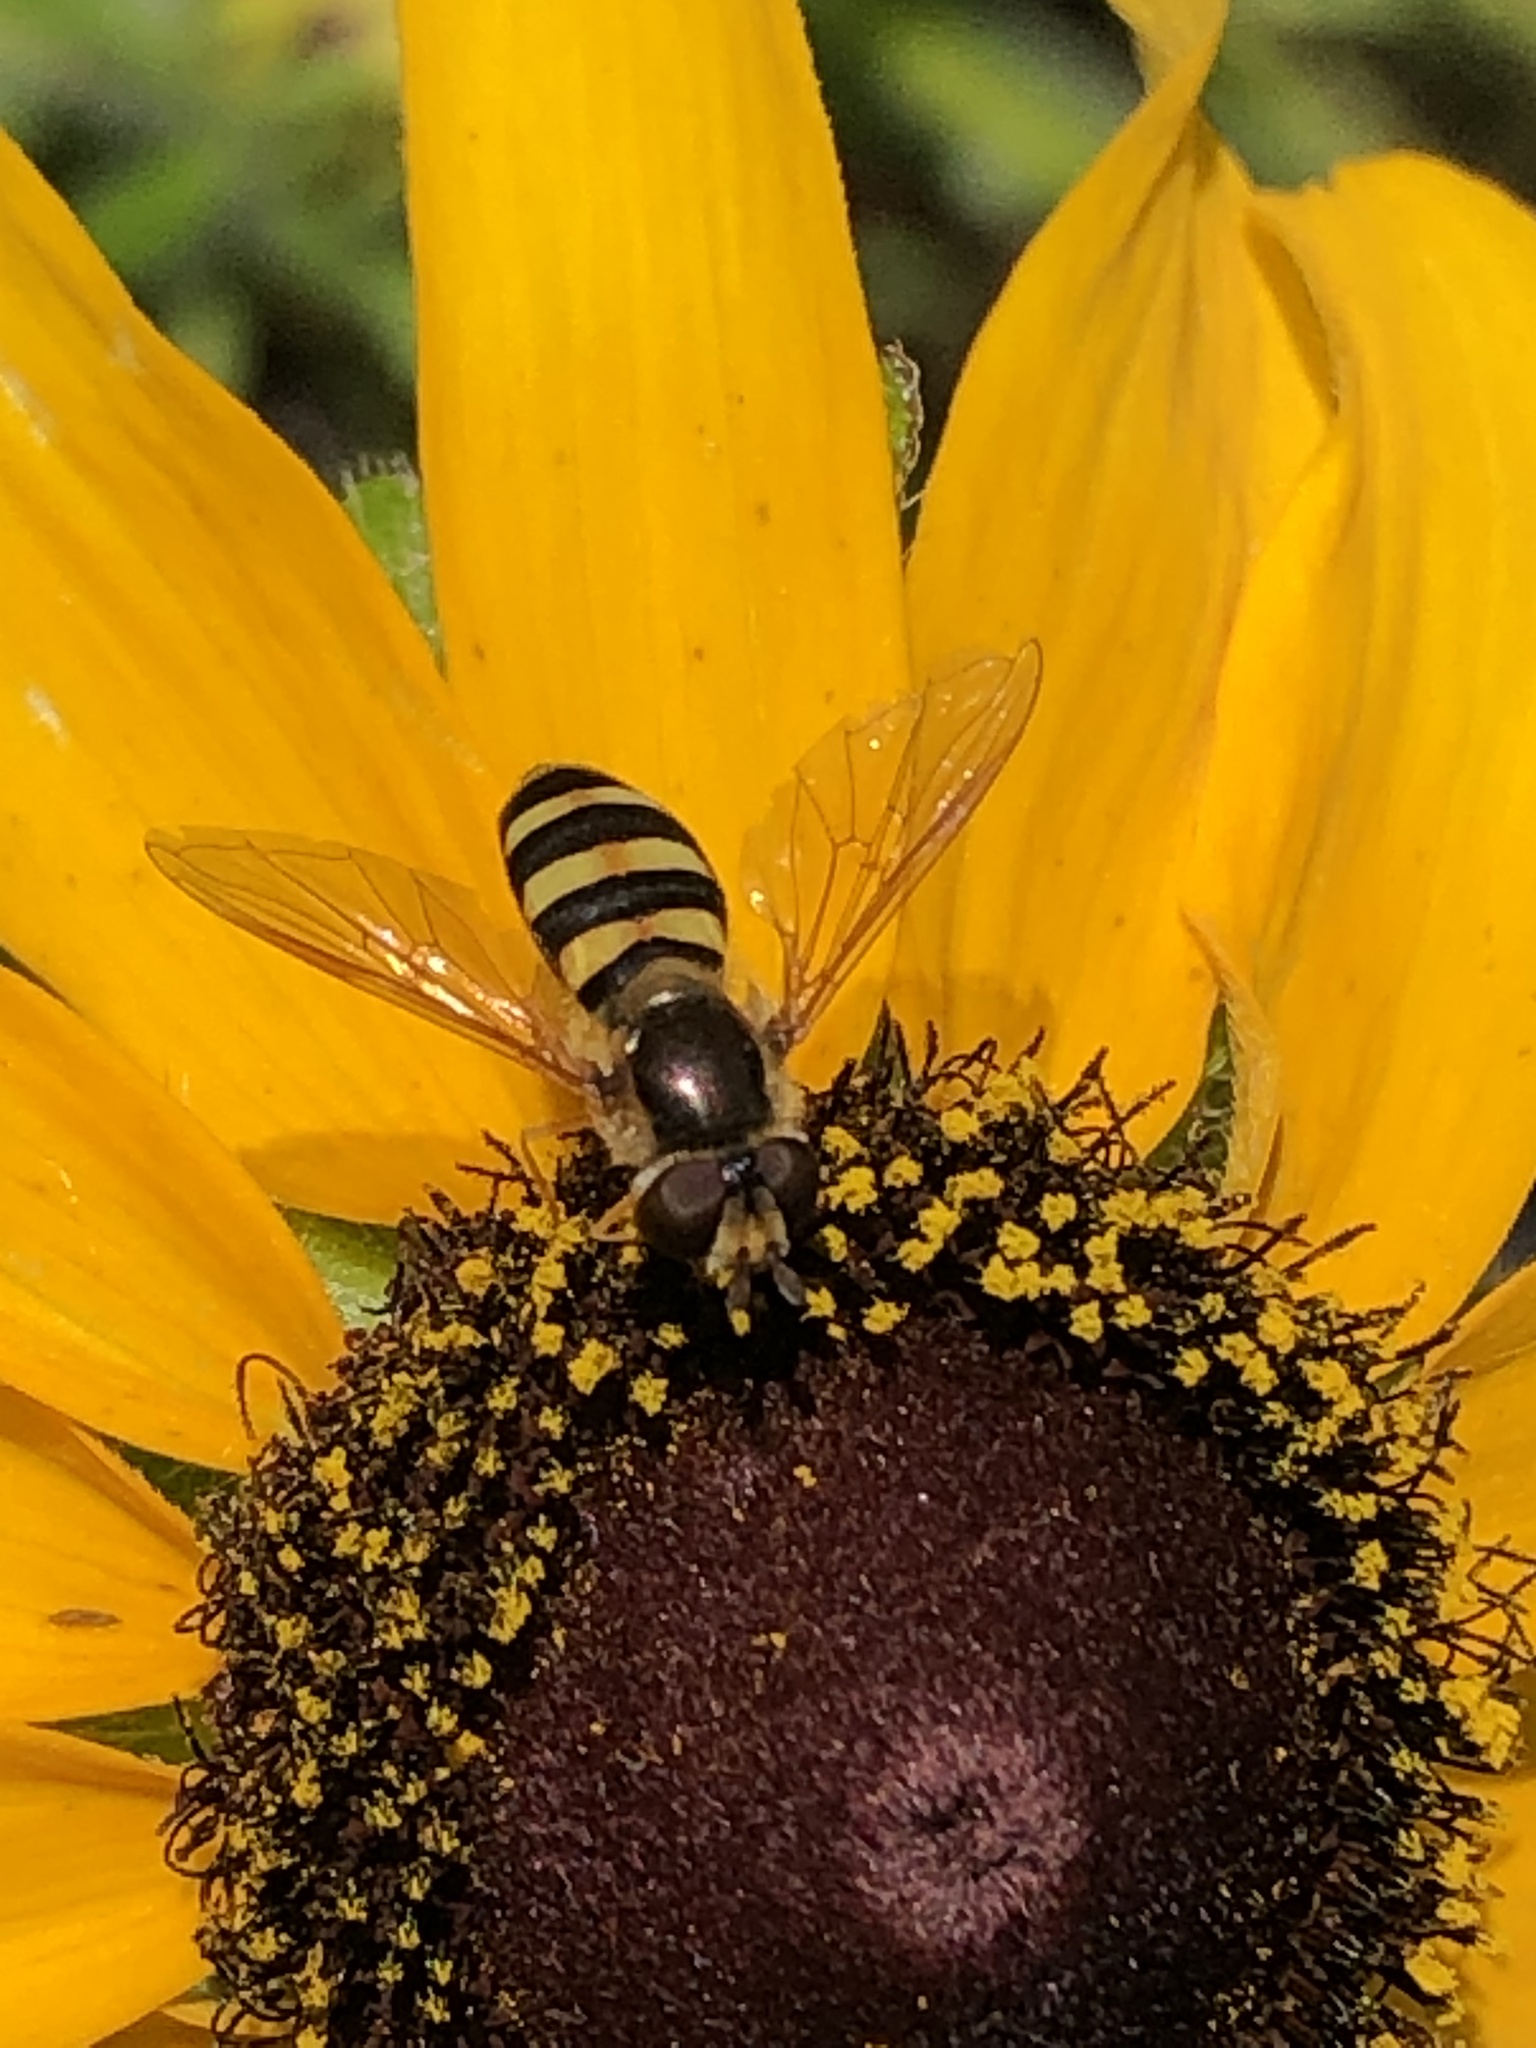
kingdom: Animalia
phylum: Arthropoda
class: Insecta
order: Diptera
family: Syrphidae
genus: Eupeodes
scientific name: Eupeodes
